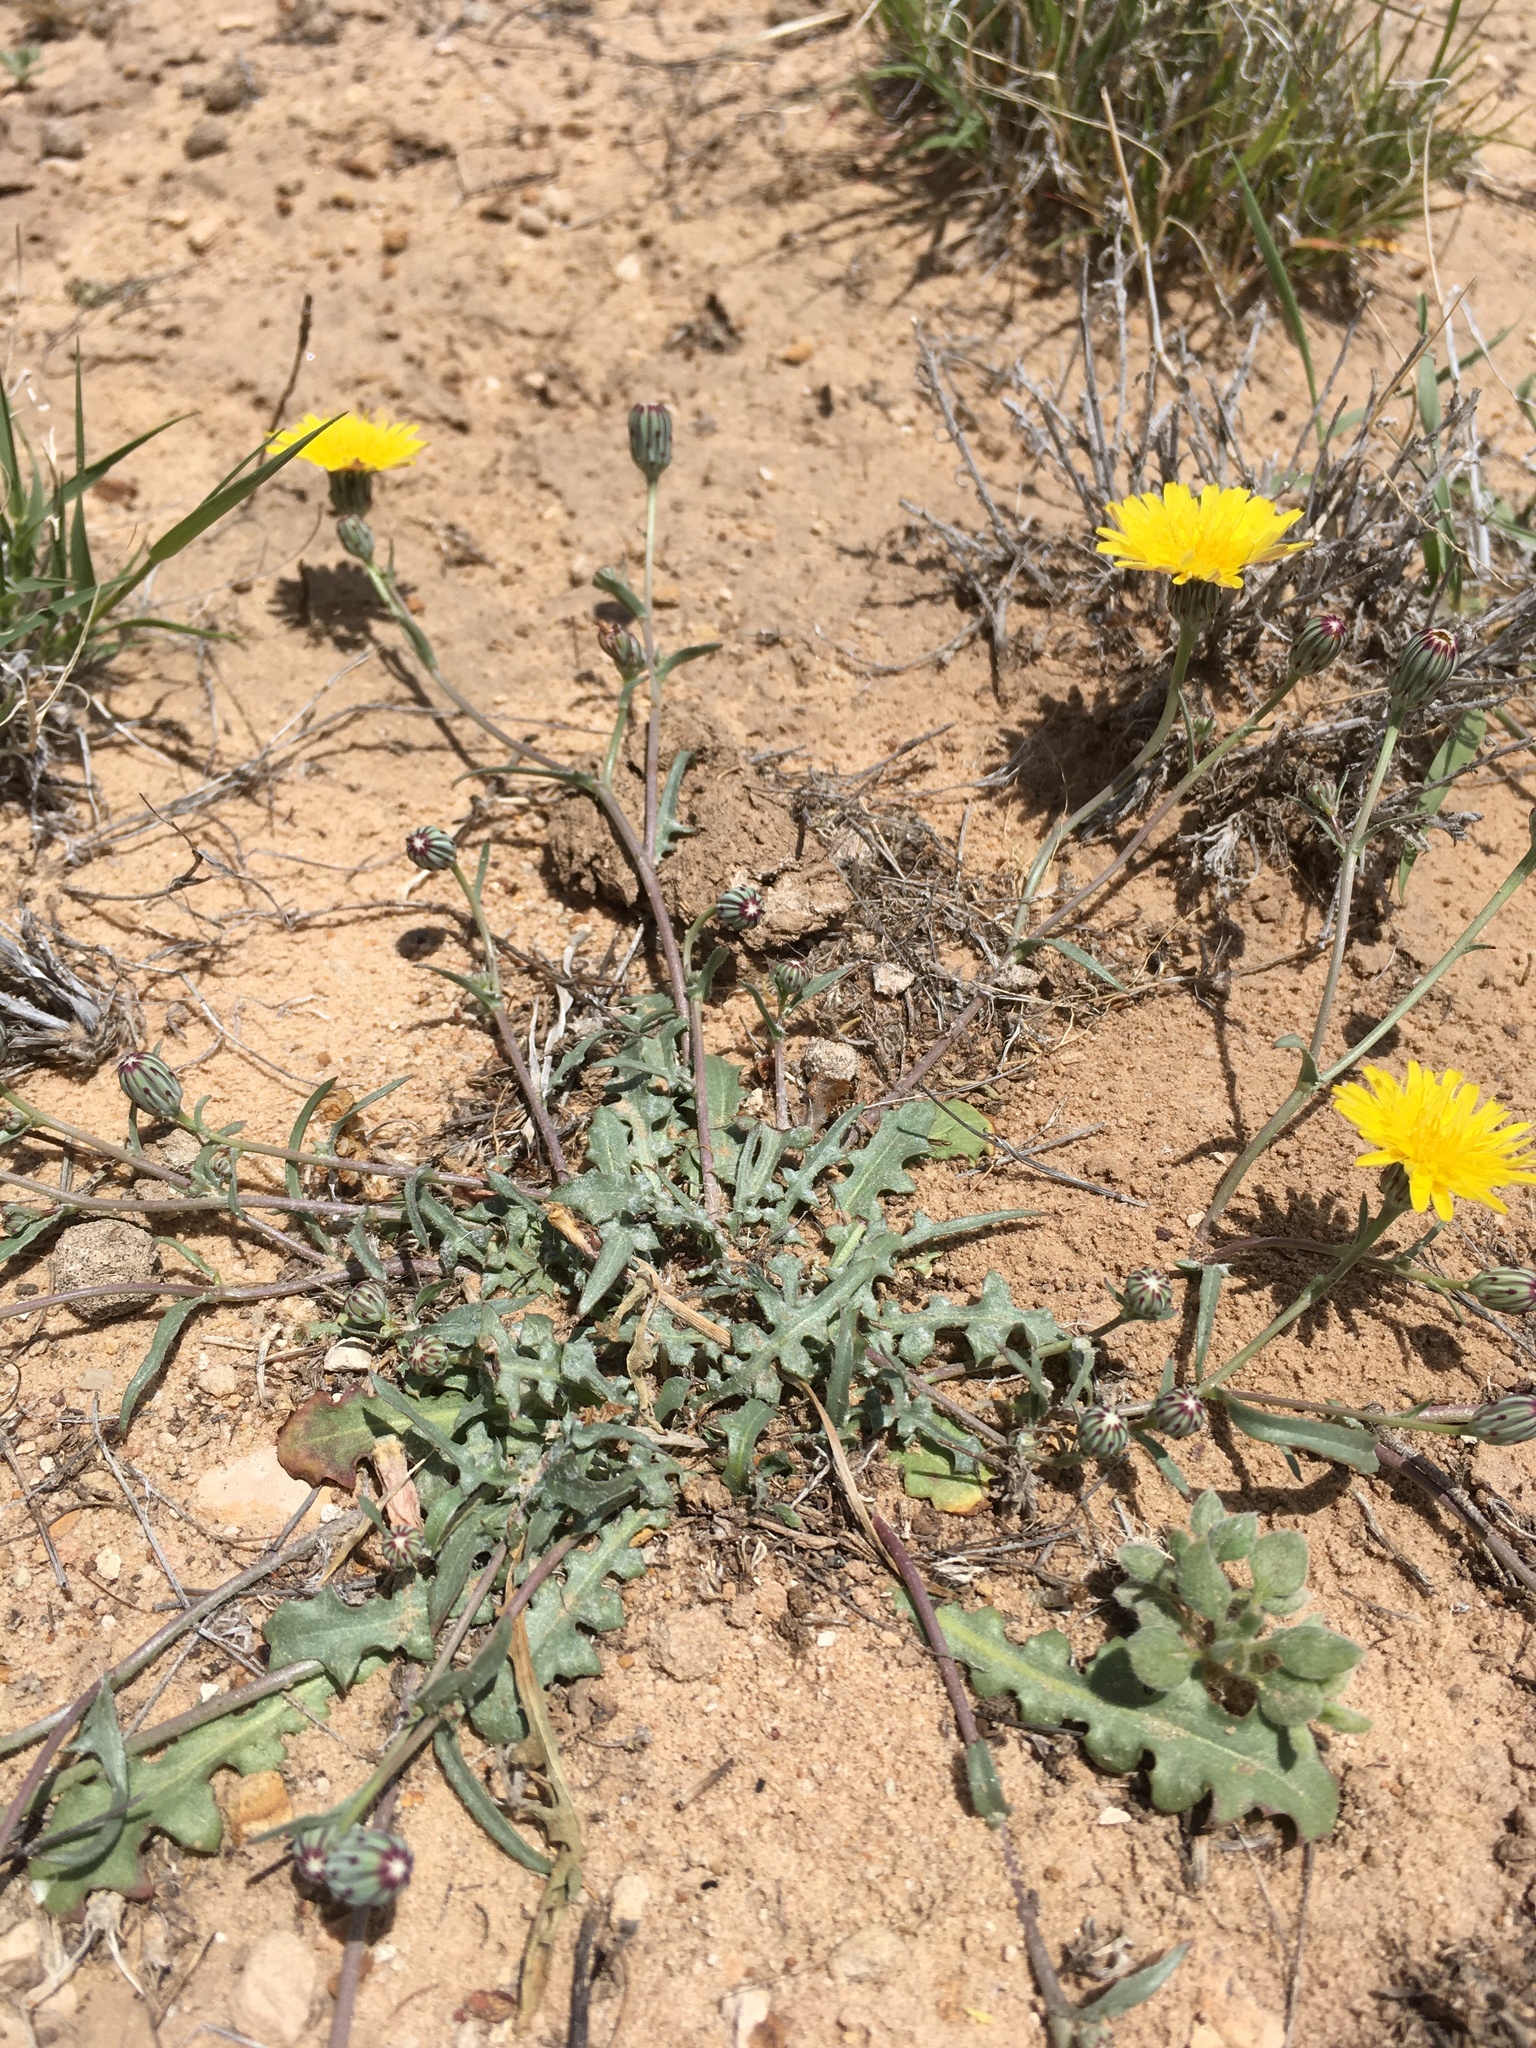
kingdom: Plantae
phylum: Tracheophyta
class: Magnoliopsida
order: Asterales
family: Asteraceae
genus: Malacothrix
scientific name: Malacothrix fendleri
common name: Fendler's desert-dandelion
